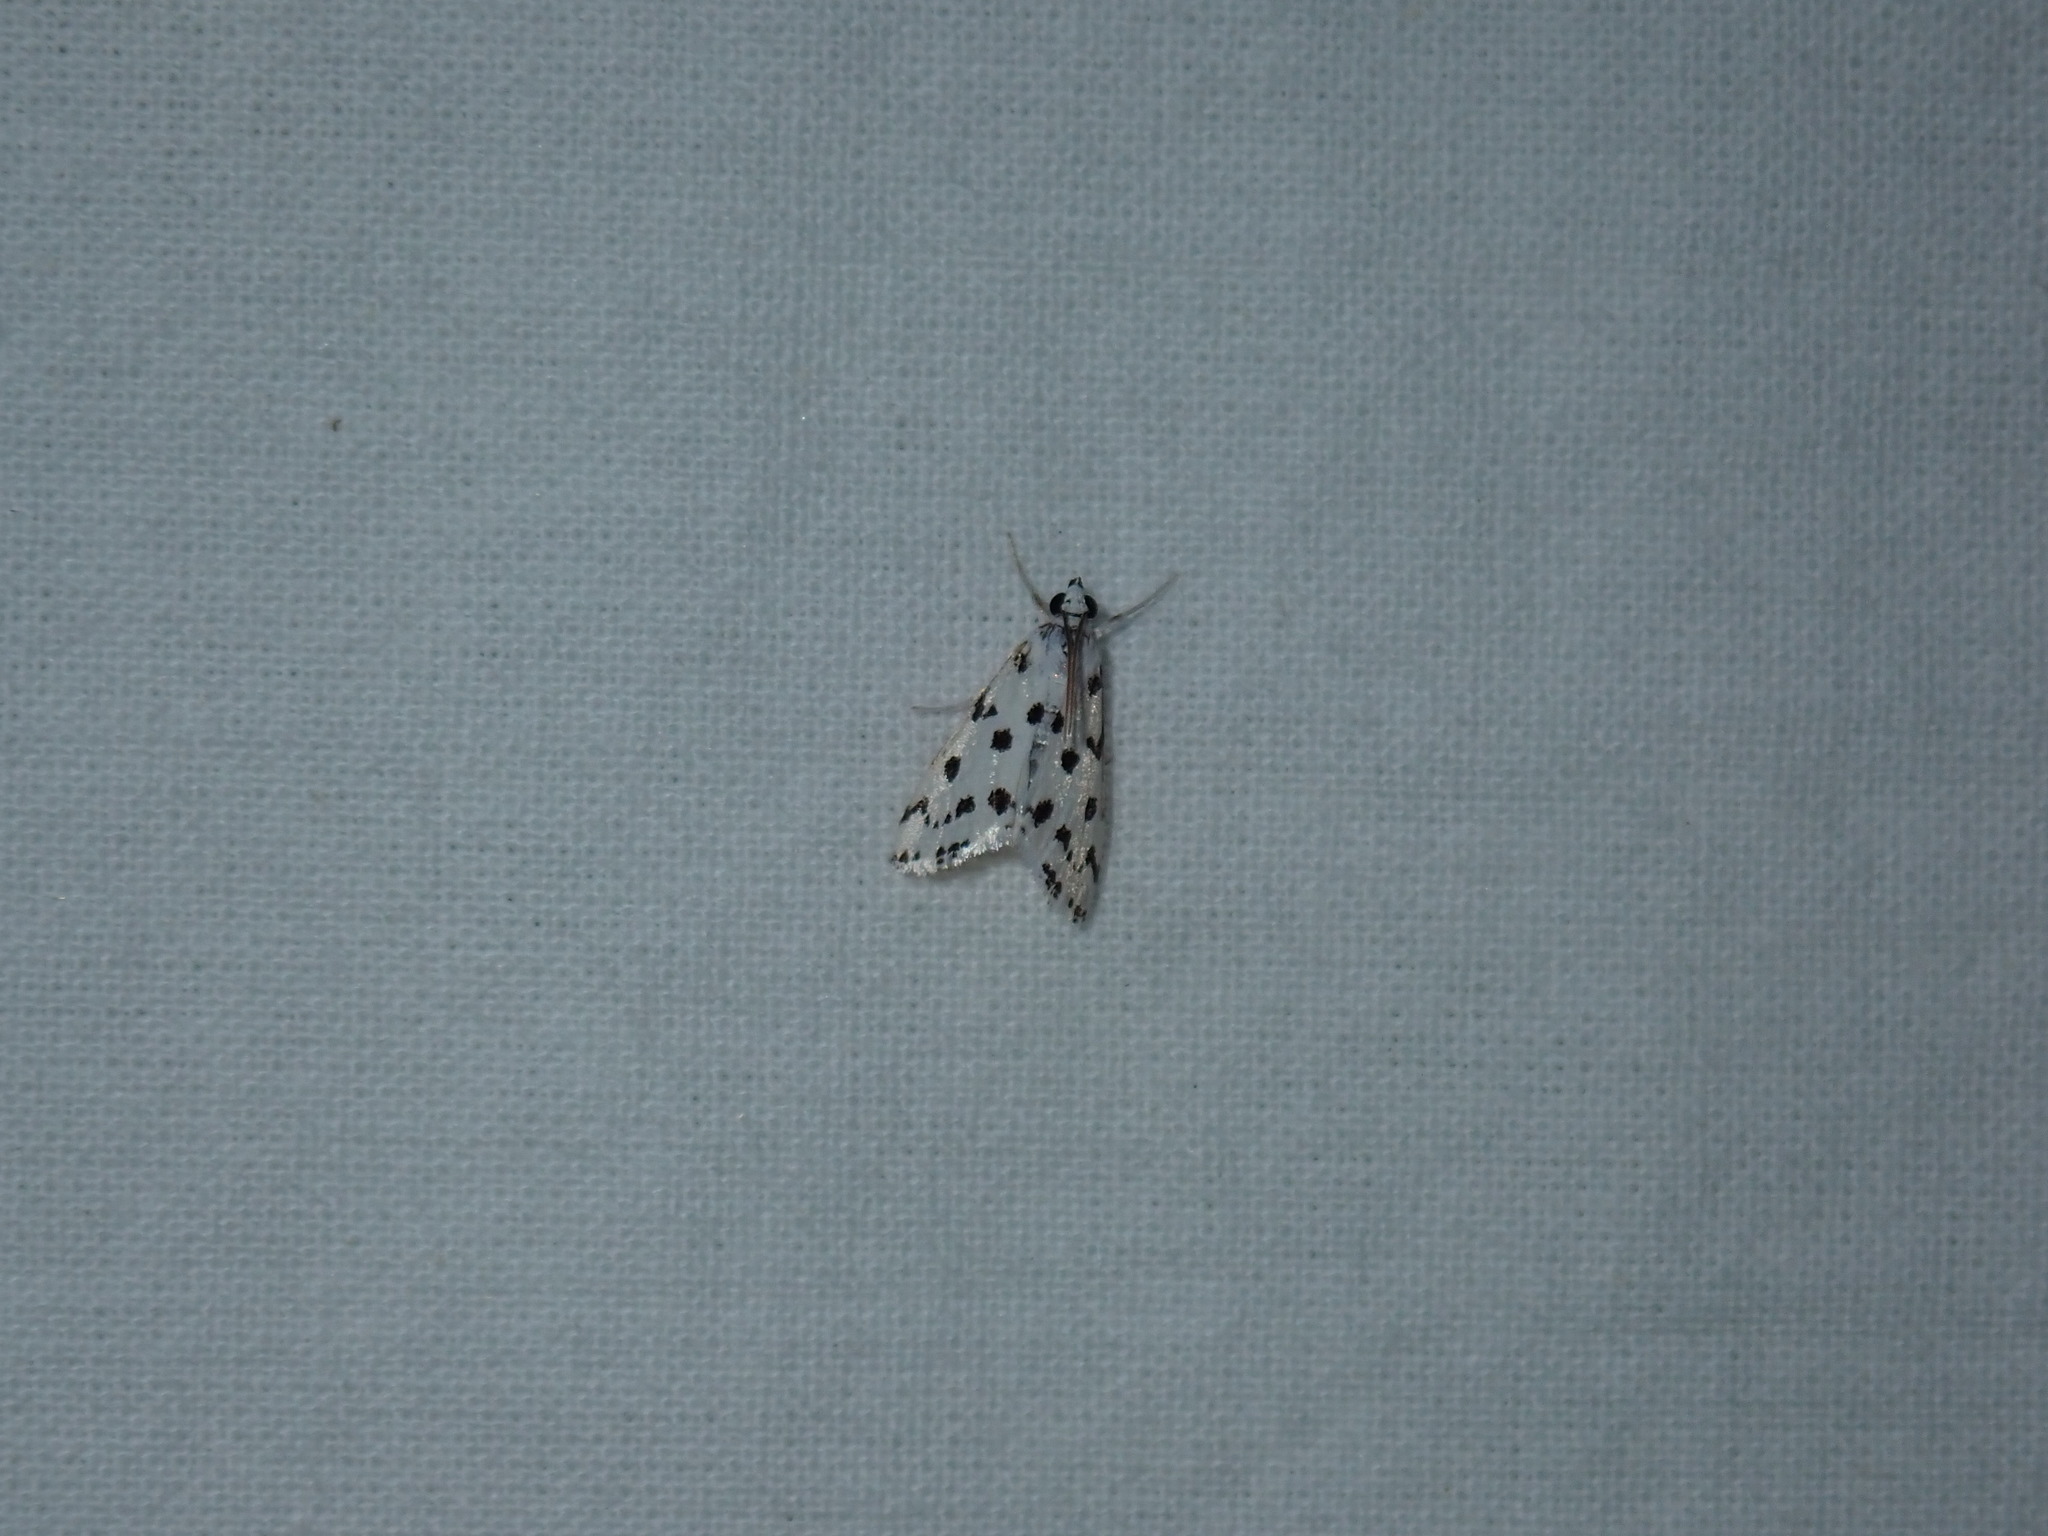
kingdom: Animalia
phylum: Arthropoda
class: Insecta
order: Lepidoptera
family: Crambidae
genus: Eustixia
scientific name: Eustixia pupula
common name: American cabbage pearl
